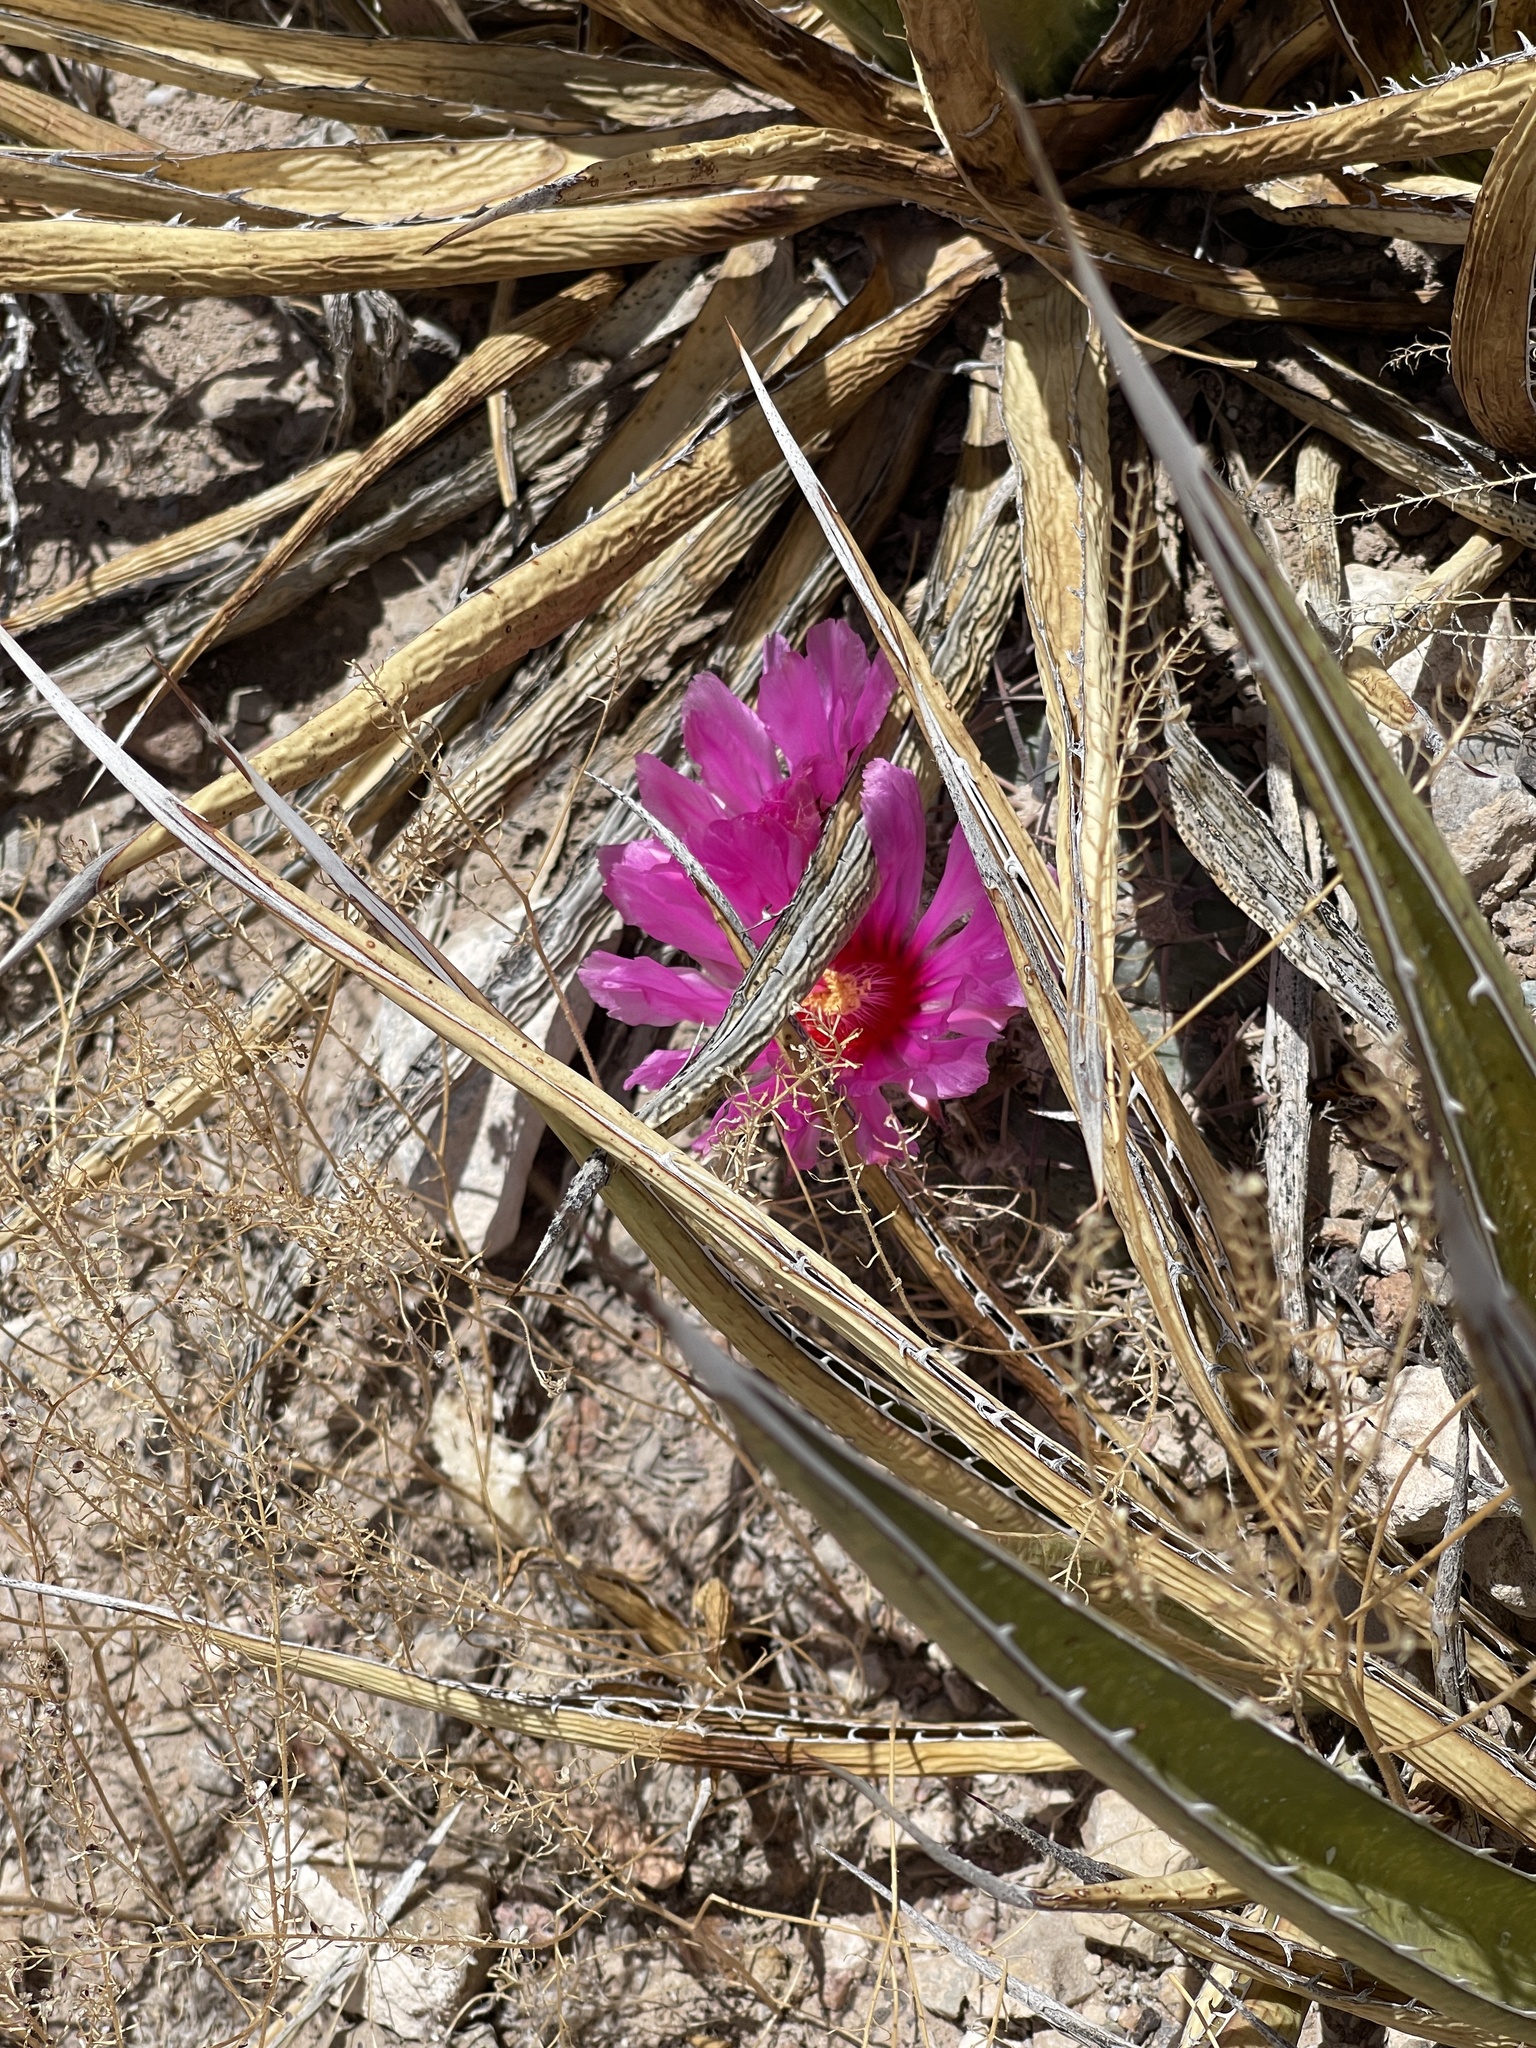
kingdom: Plantae
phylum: Tracheophyta
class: Magnoliopsida
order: Caryophyllales
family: Cactaceae
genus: Echinocactus
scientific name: Echinocactus horizonthalonius
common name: Devilshead
